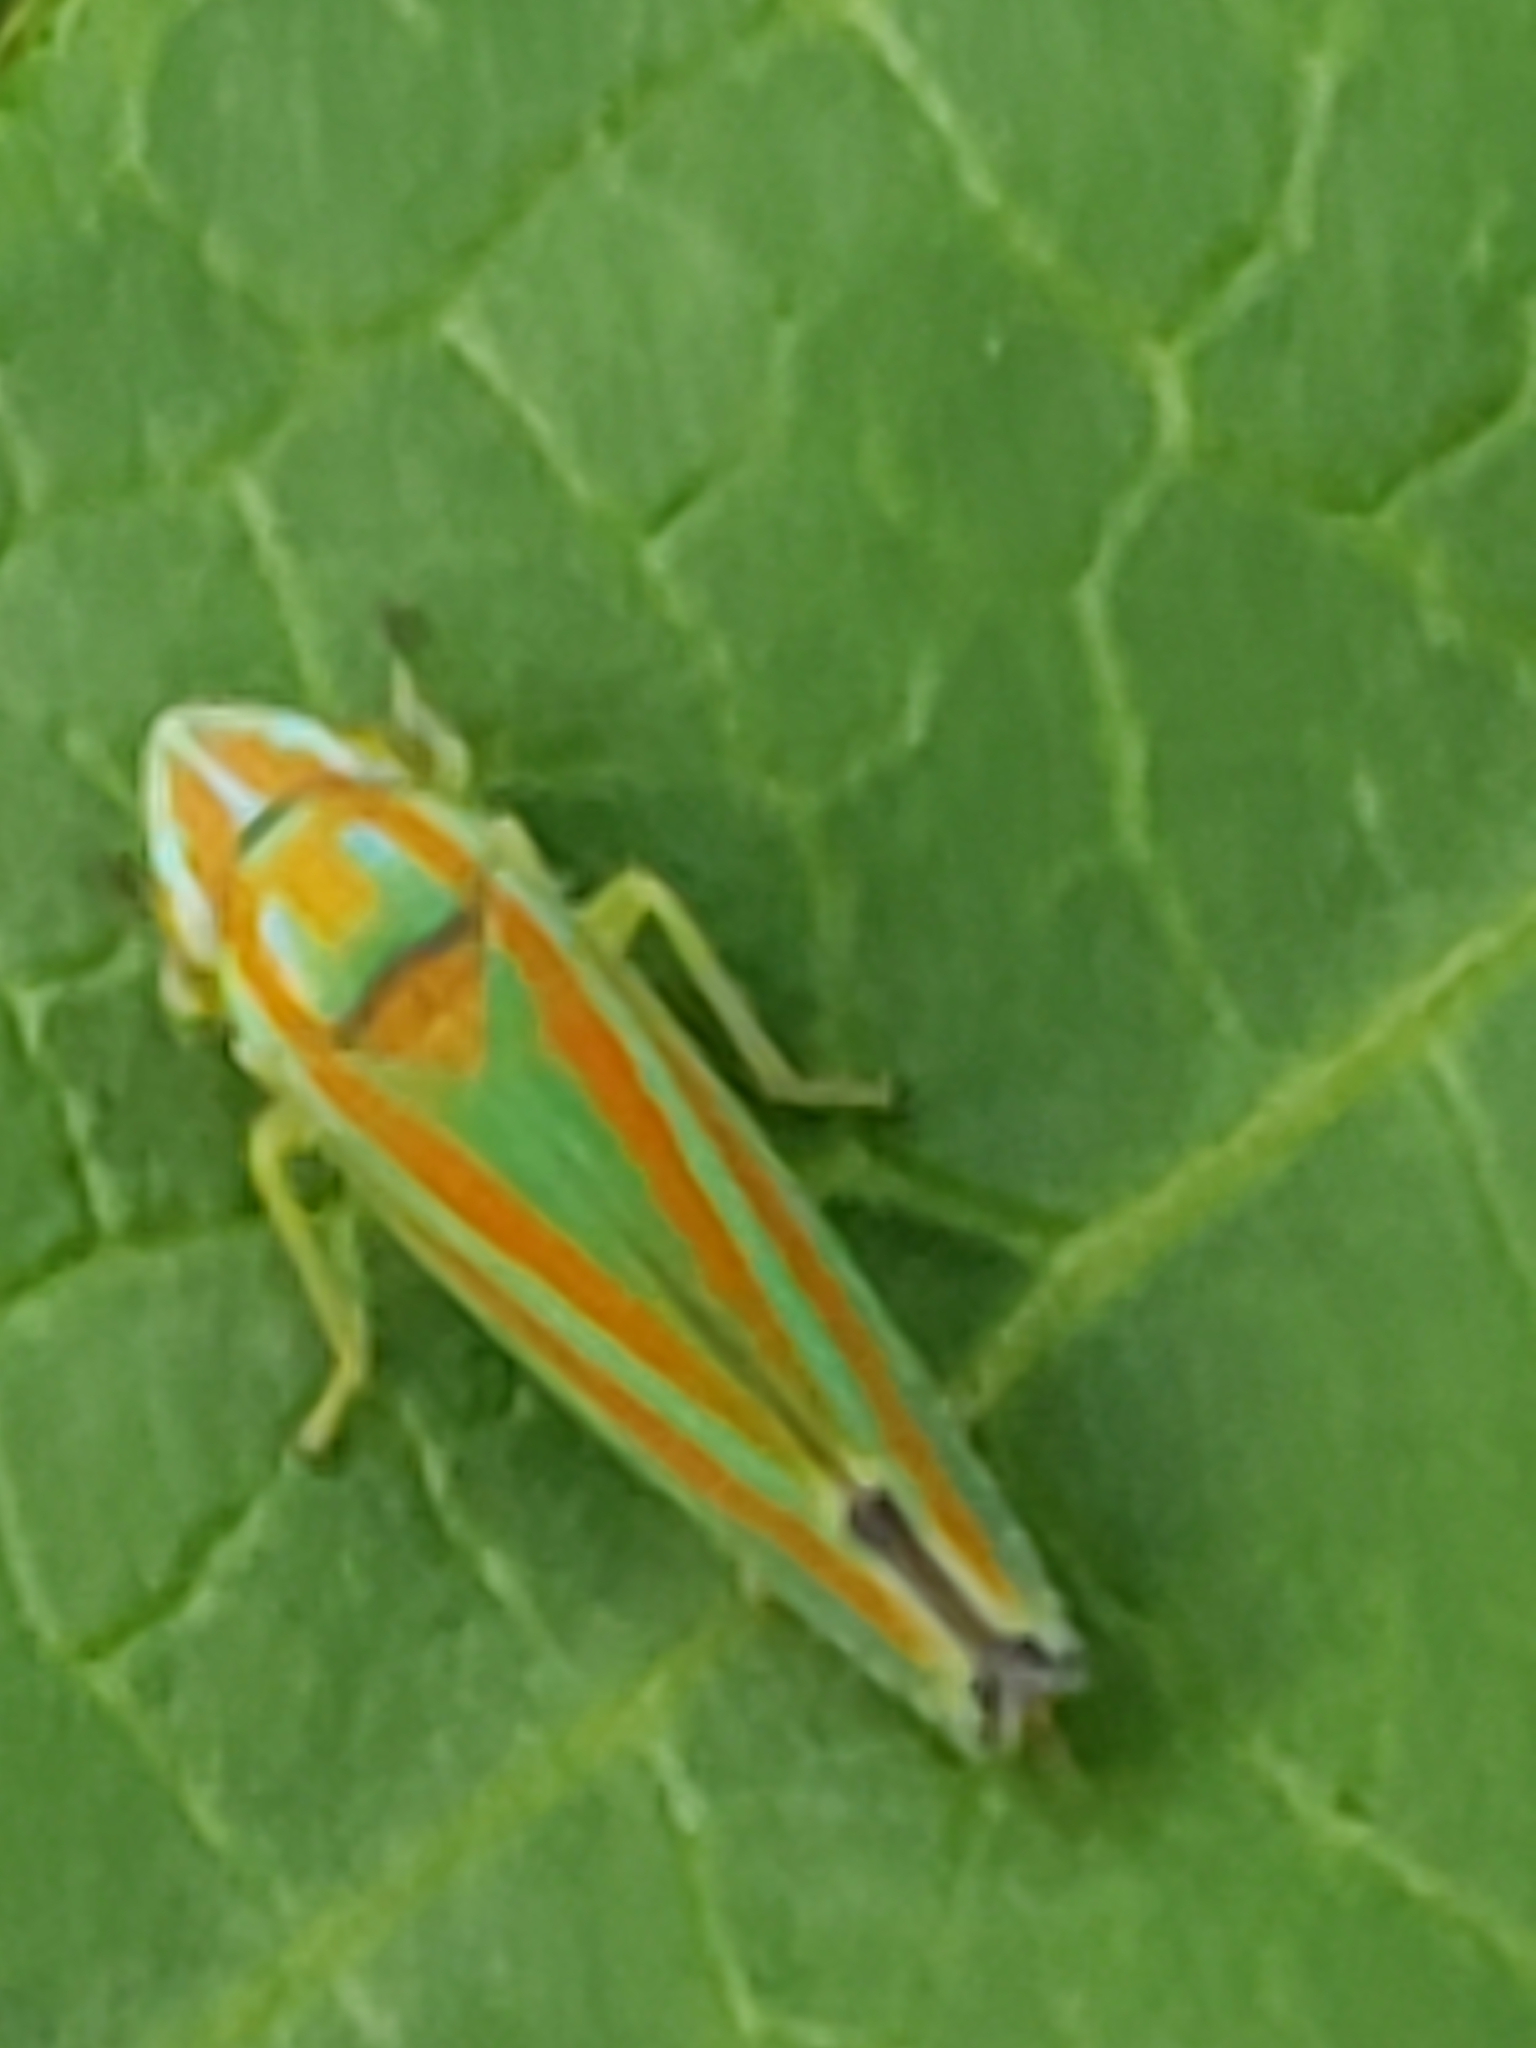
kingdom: Animalia
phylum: Arthropoda
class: Insecta
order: Hemiptera
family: Cicadellidae
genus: Graphocephala
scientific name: Graphocephala versuta
